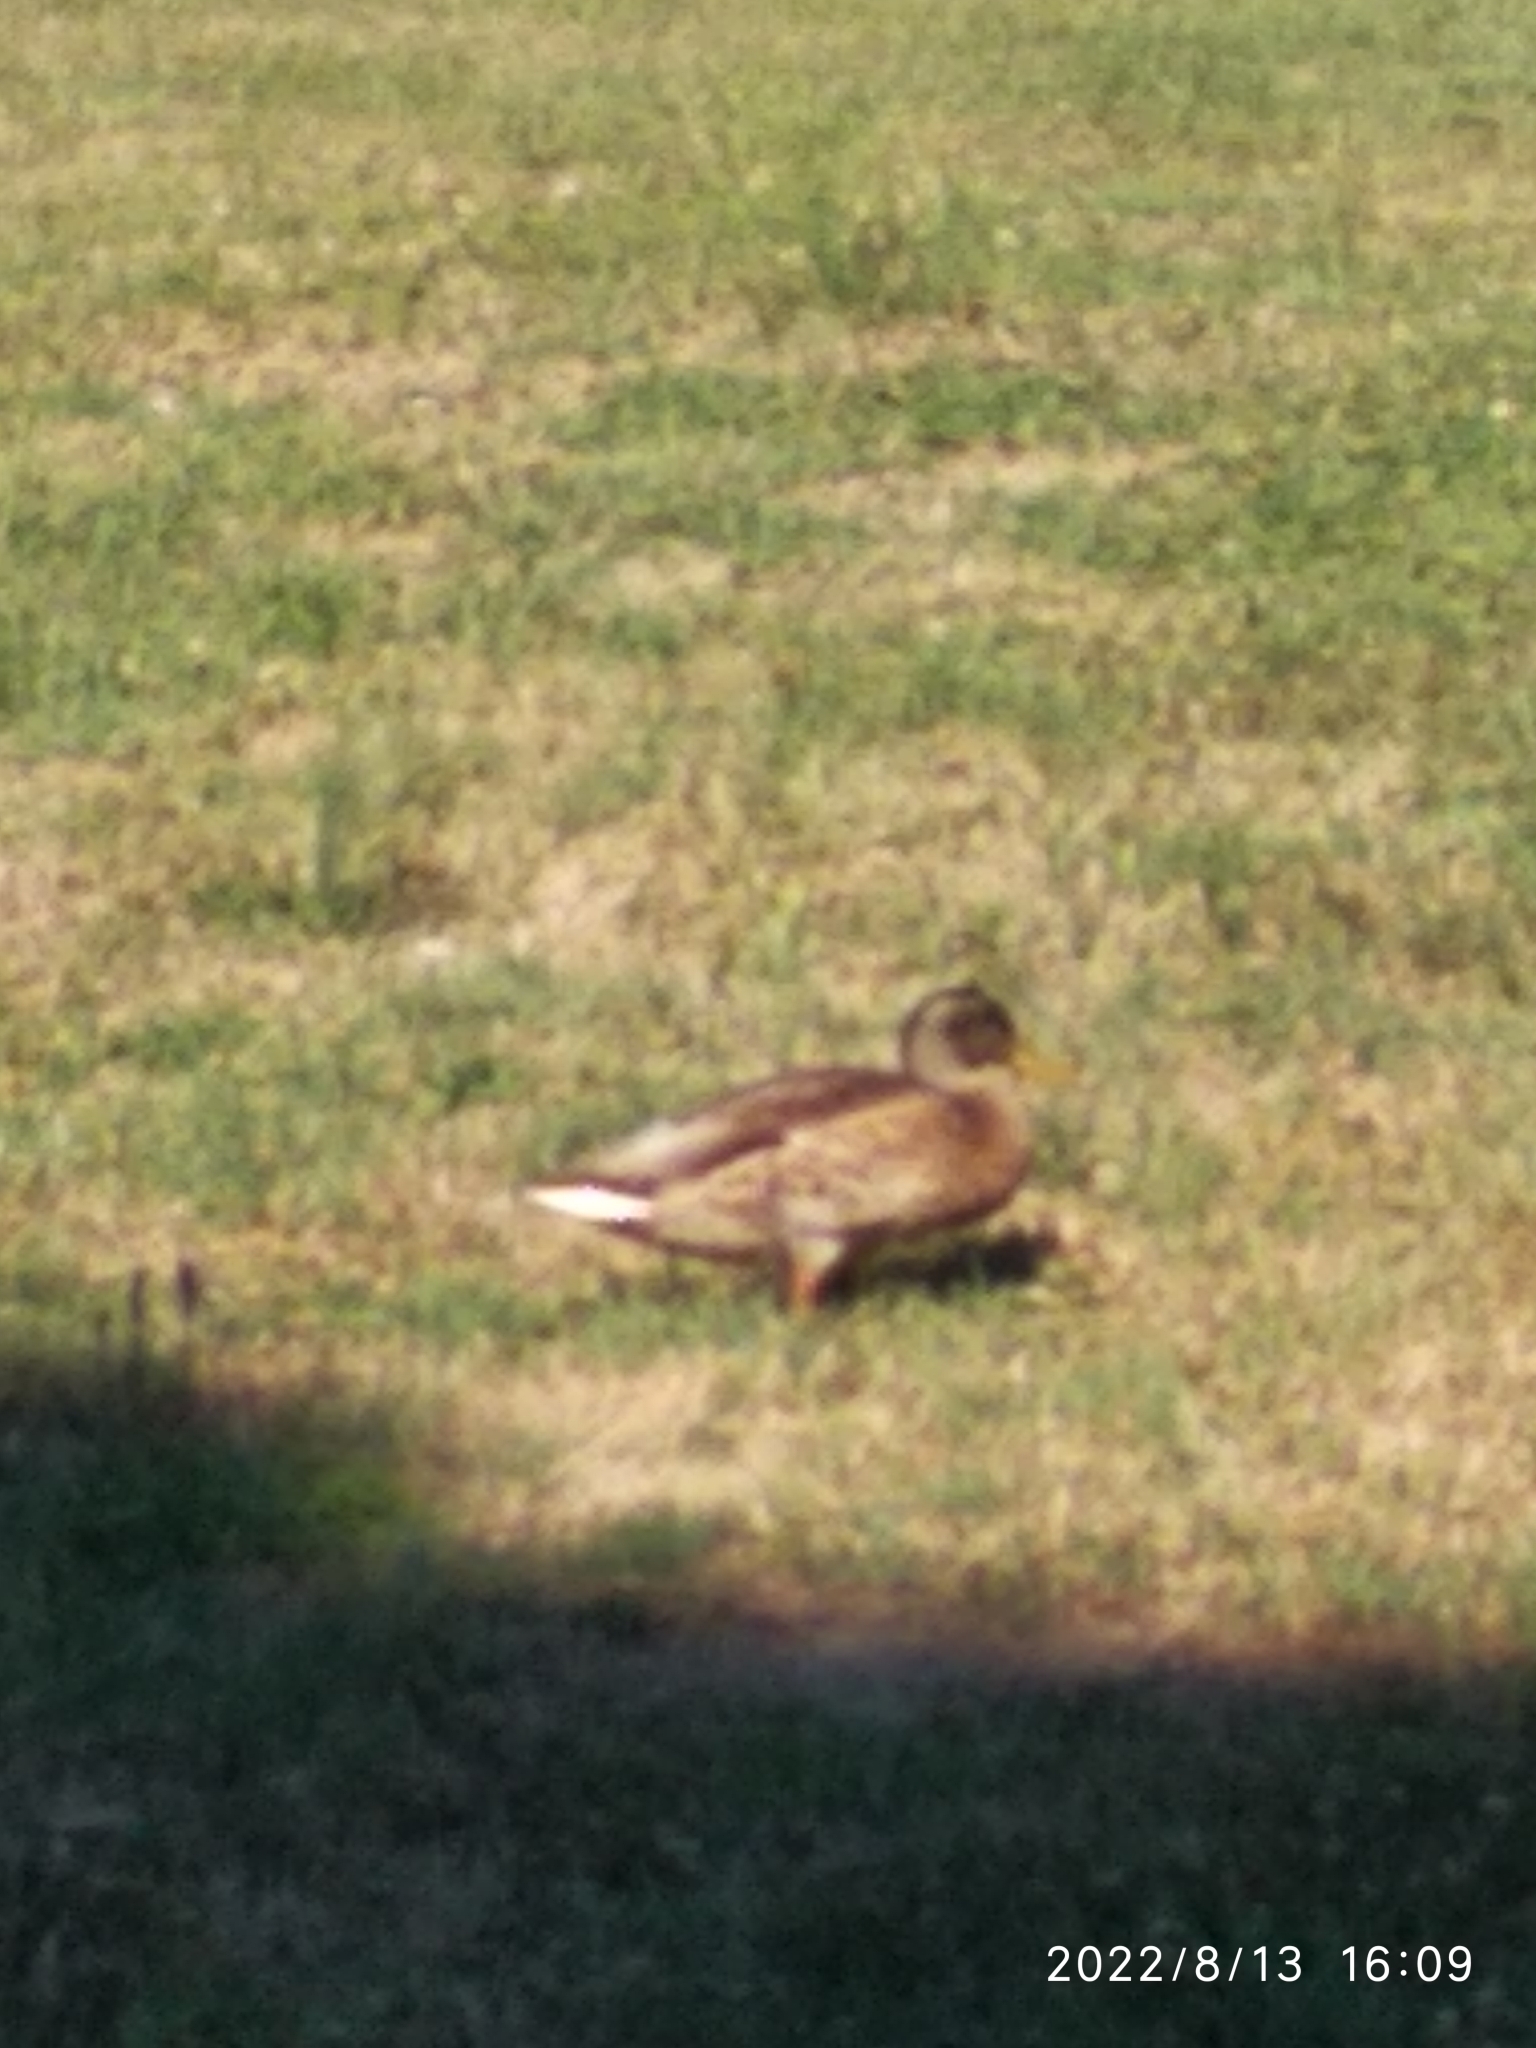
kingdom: Animalia
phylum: Chordata
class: Aves
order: Anseriformes
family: Anatidae
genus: Anas
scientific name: Anas platyrhynchos
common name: Mallard
